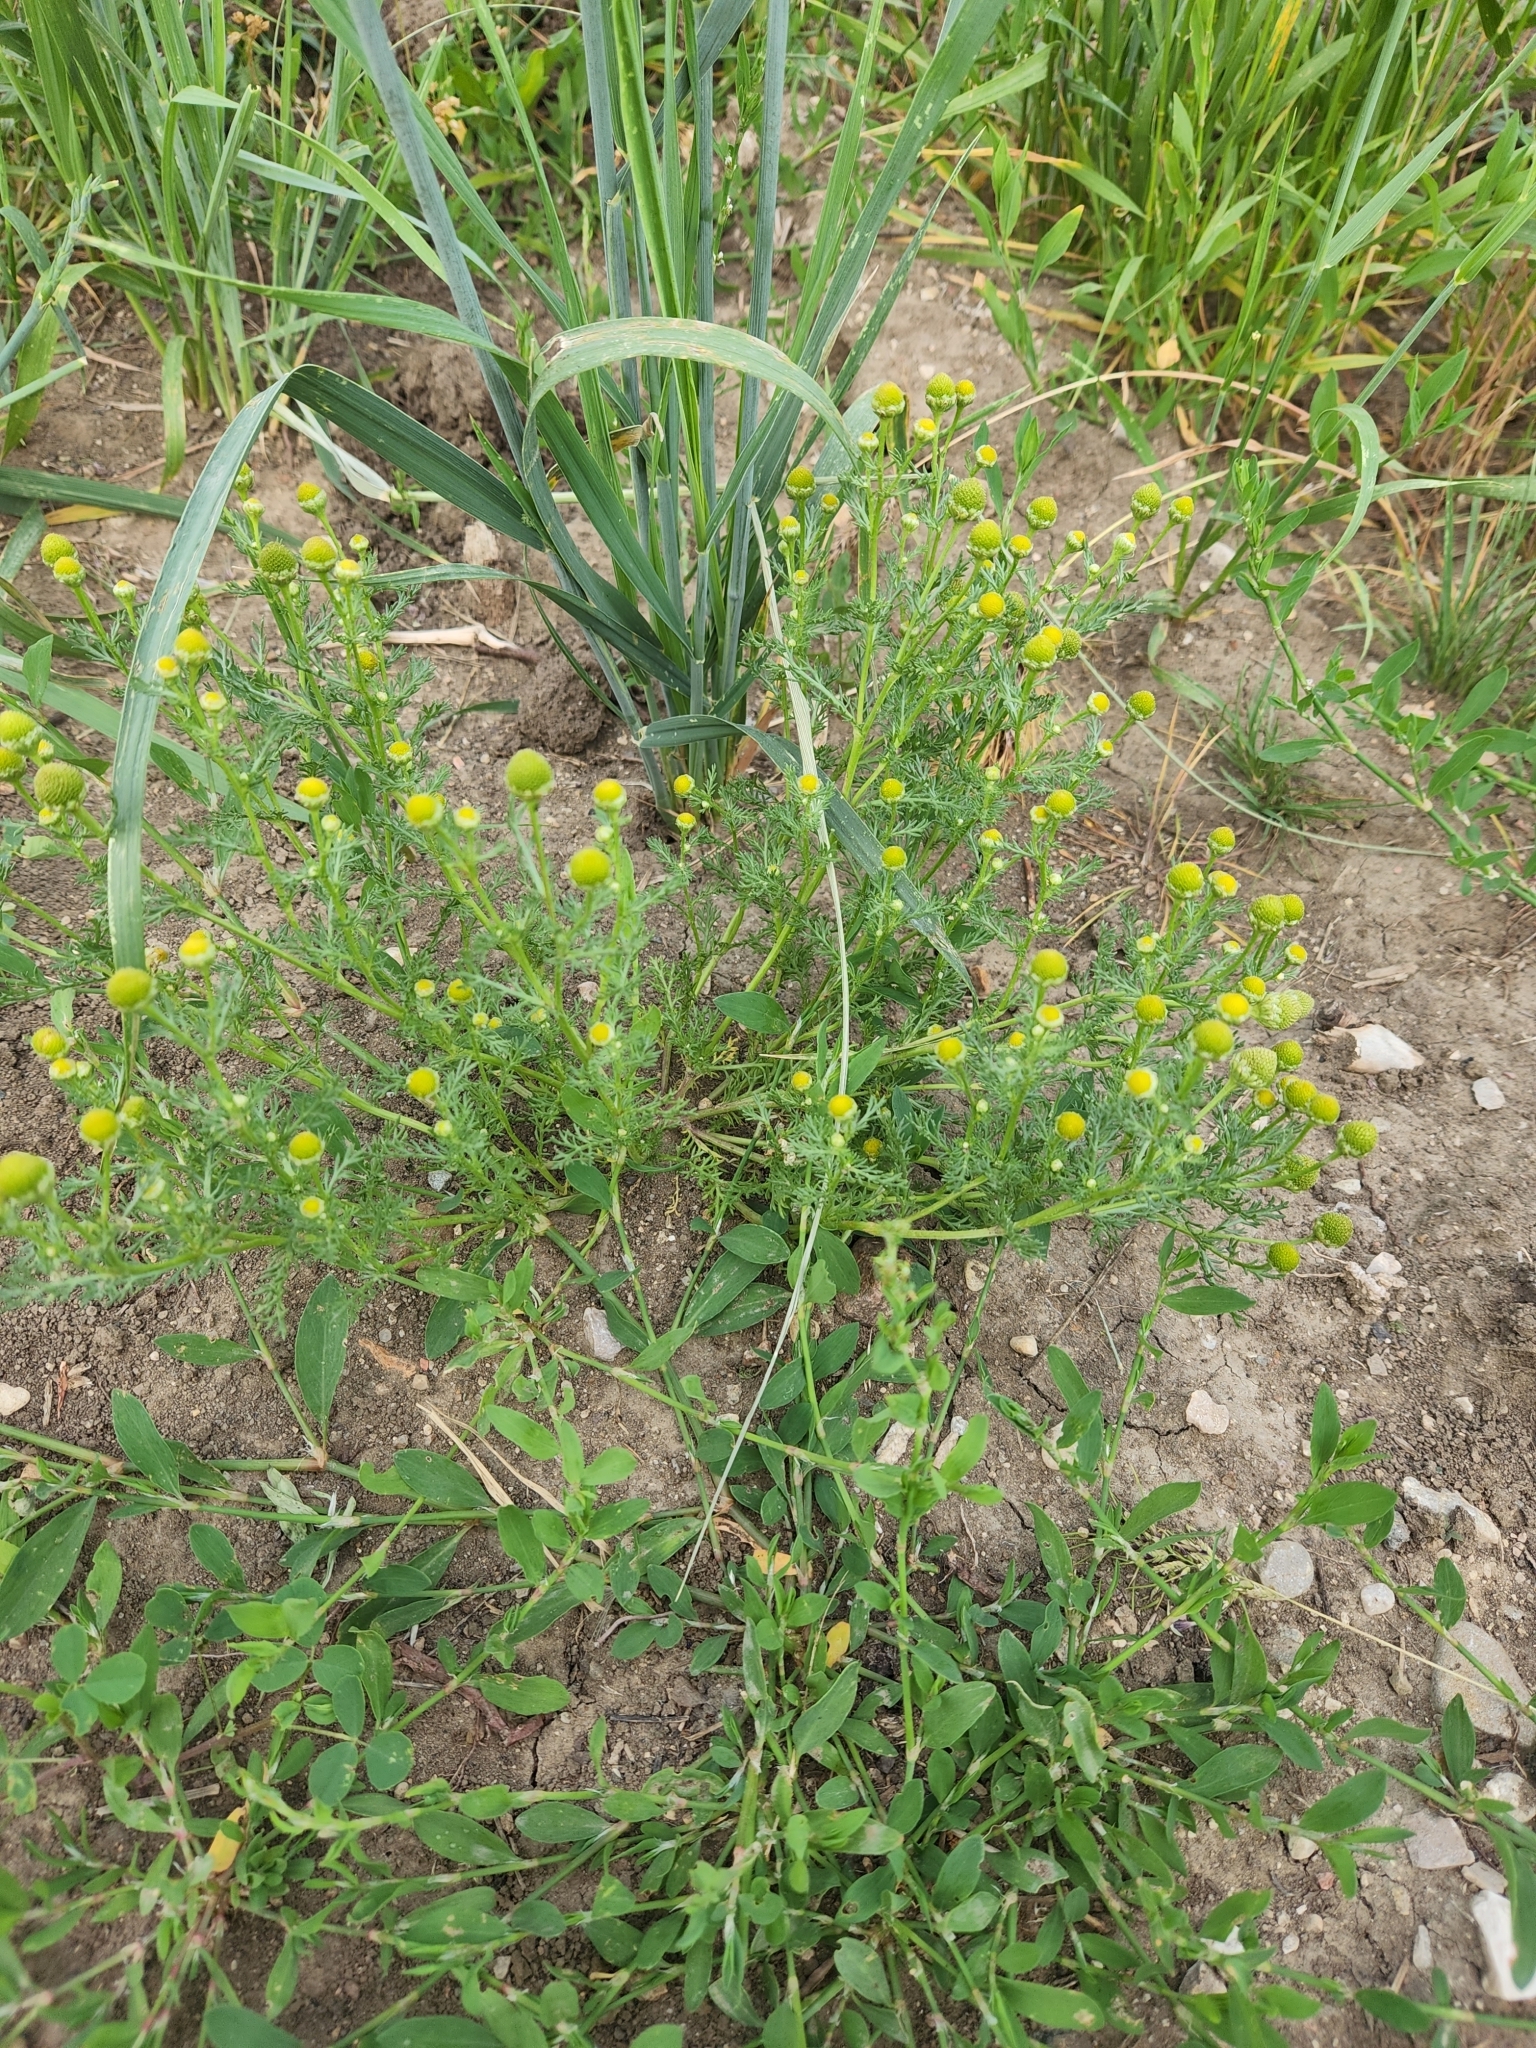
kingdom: Plantae
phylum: Tracheophyta
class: Magnoliopsida
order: Asterales
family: Asteraceae
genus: Matricaria
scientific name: Matricaria discoidea
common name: Disc mayweed
